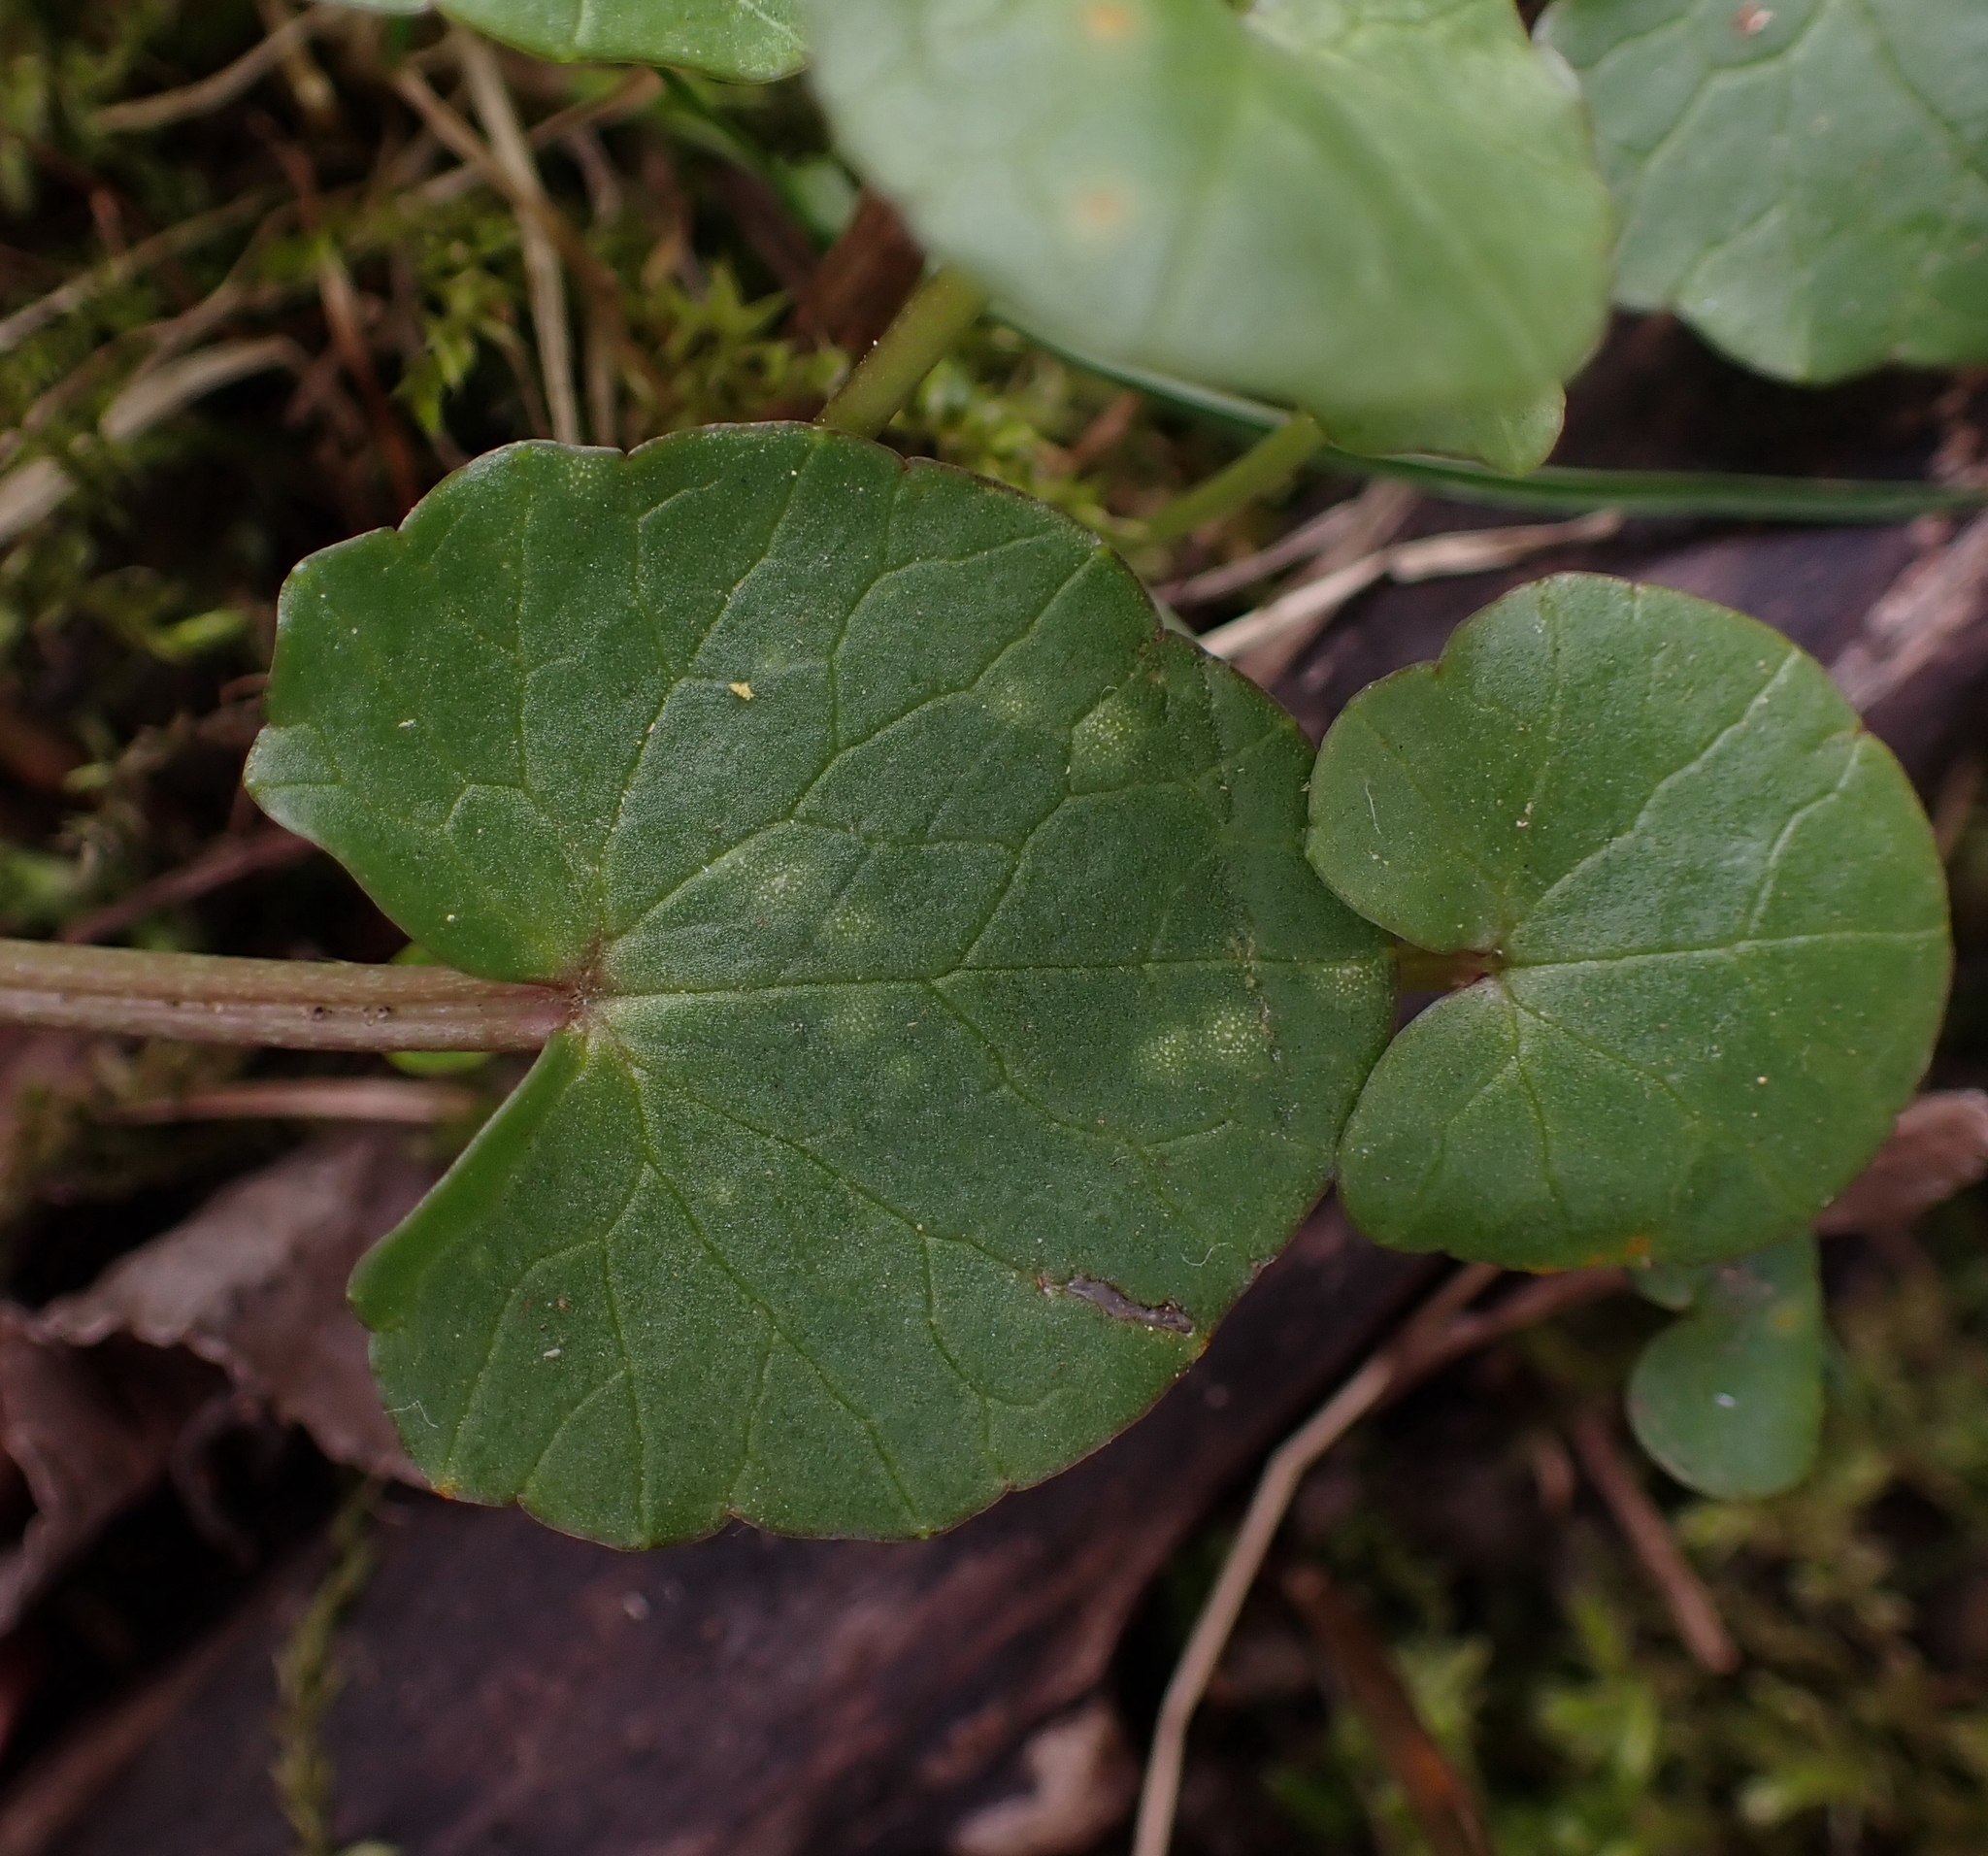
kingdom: Fungi
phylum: Basidiomycota
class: Exobasidiomycetes
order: Entylomatales
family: Entylomataceae
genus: Entyloma
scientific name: Entyloma ficariae
